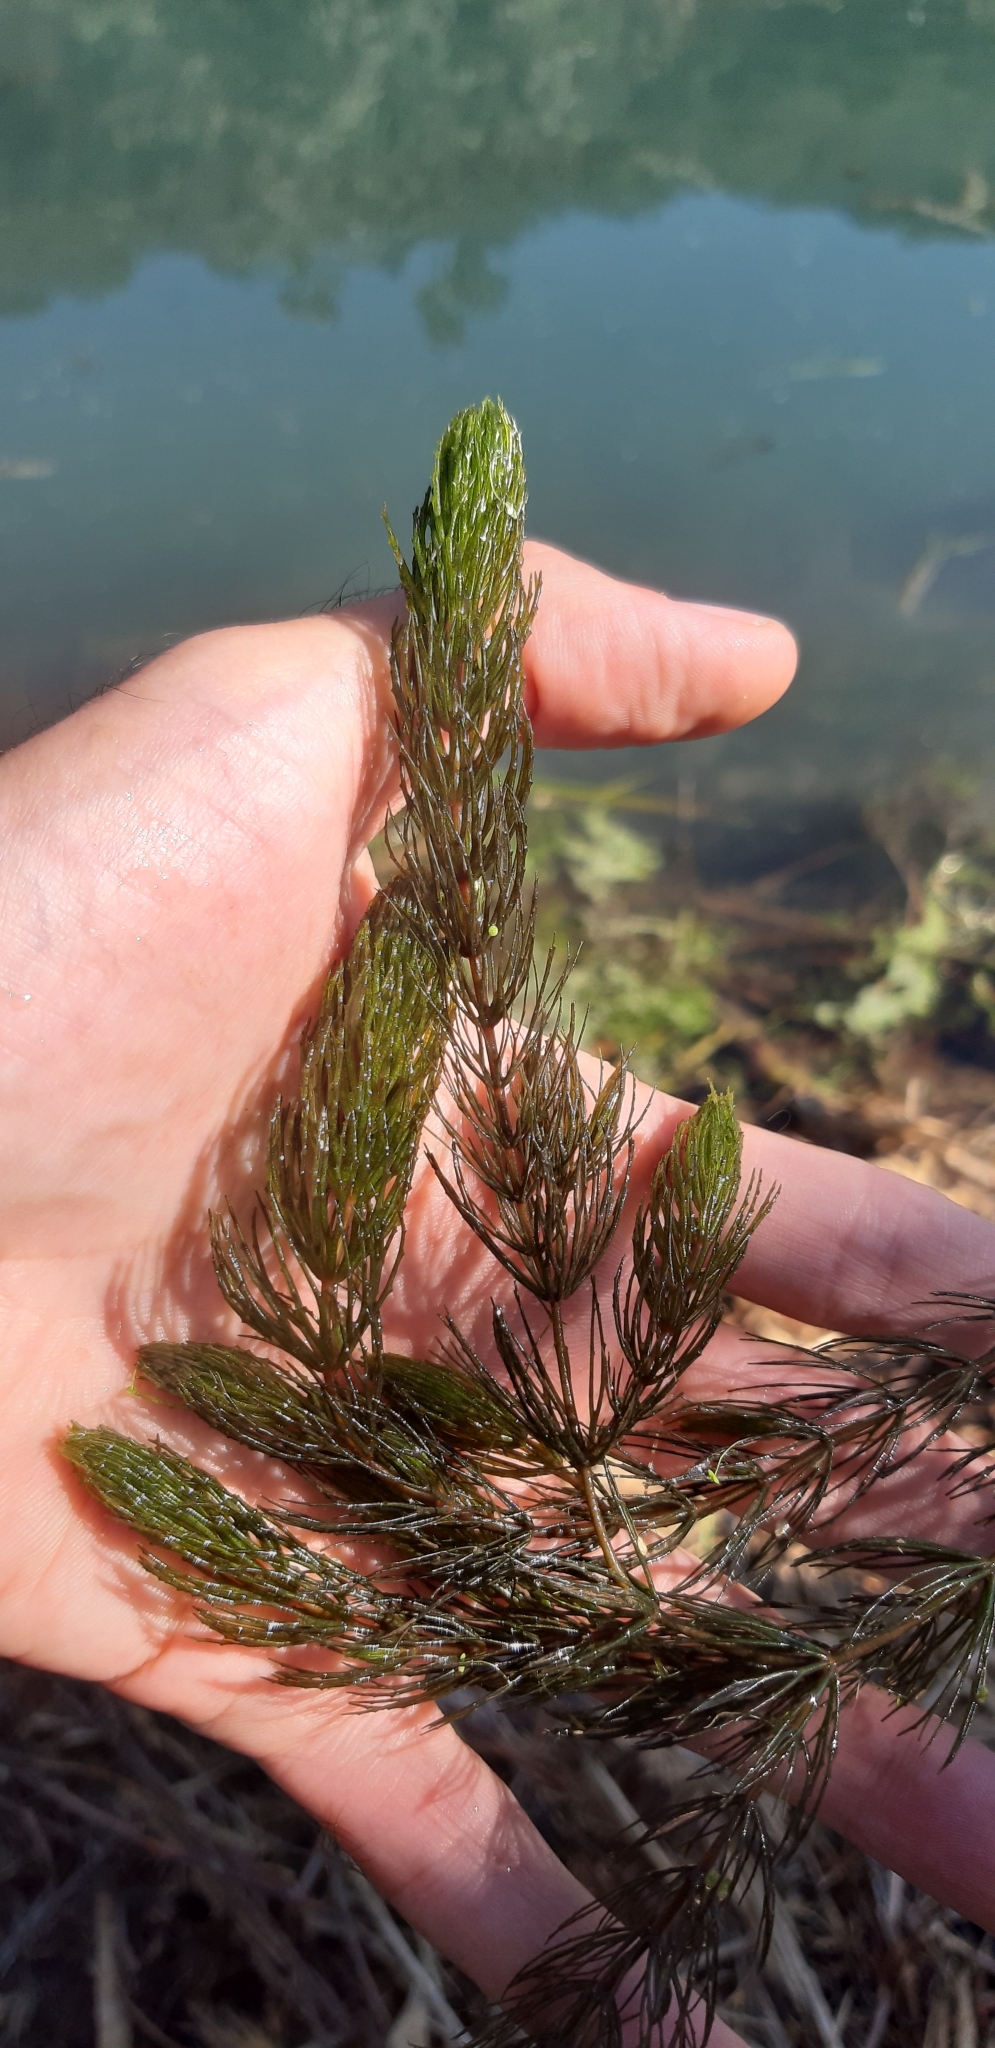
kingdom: Plantae
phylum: Tracheophyta
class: Magnoliopsida
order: Ceratophyllales
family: Ceratophyllaceae
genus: Ceratophyllum
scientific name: Ceratophyllum demersum
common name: Rigid hornwort
